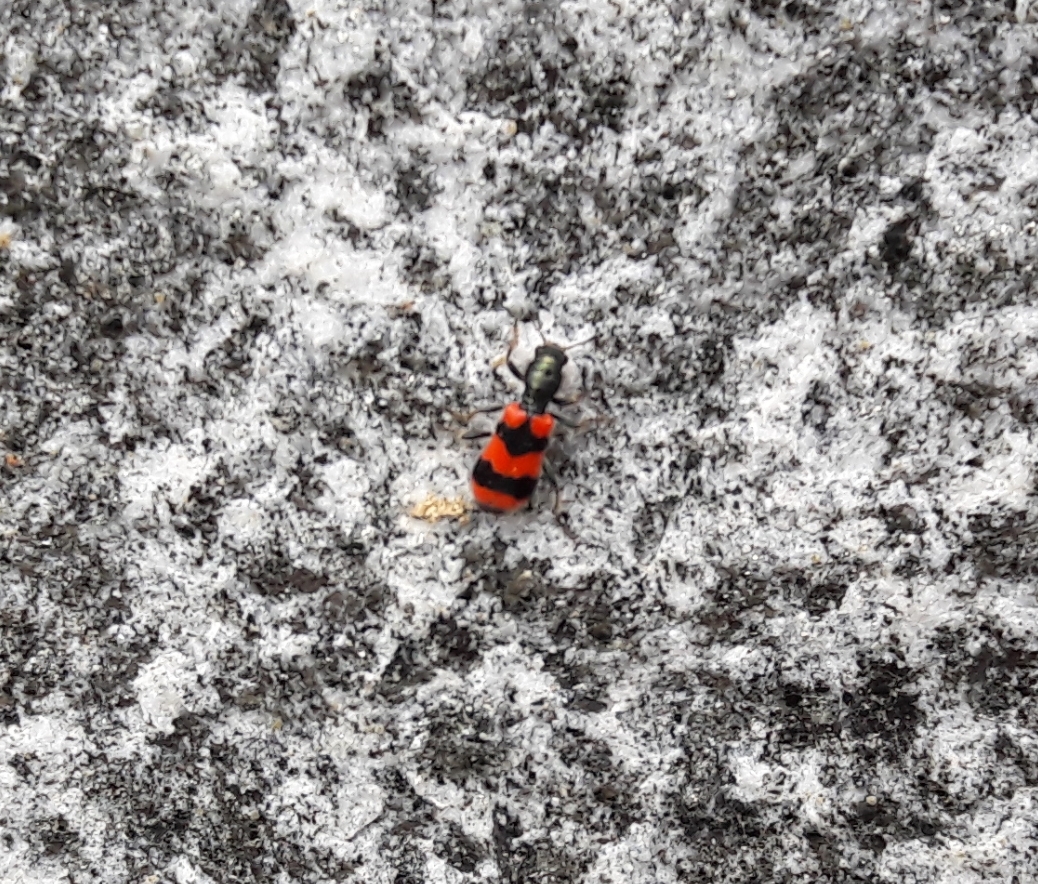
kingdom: Animalia
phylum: Arthropoda
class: Insecta
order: Coleoptera
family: Cleridae
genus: Trichodes
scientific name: Trichodes apiarius
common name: Bee-eating beetle
